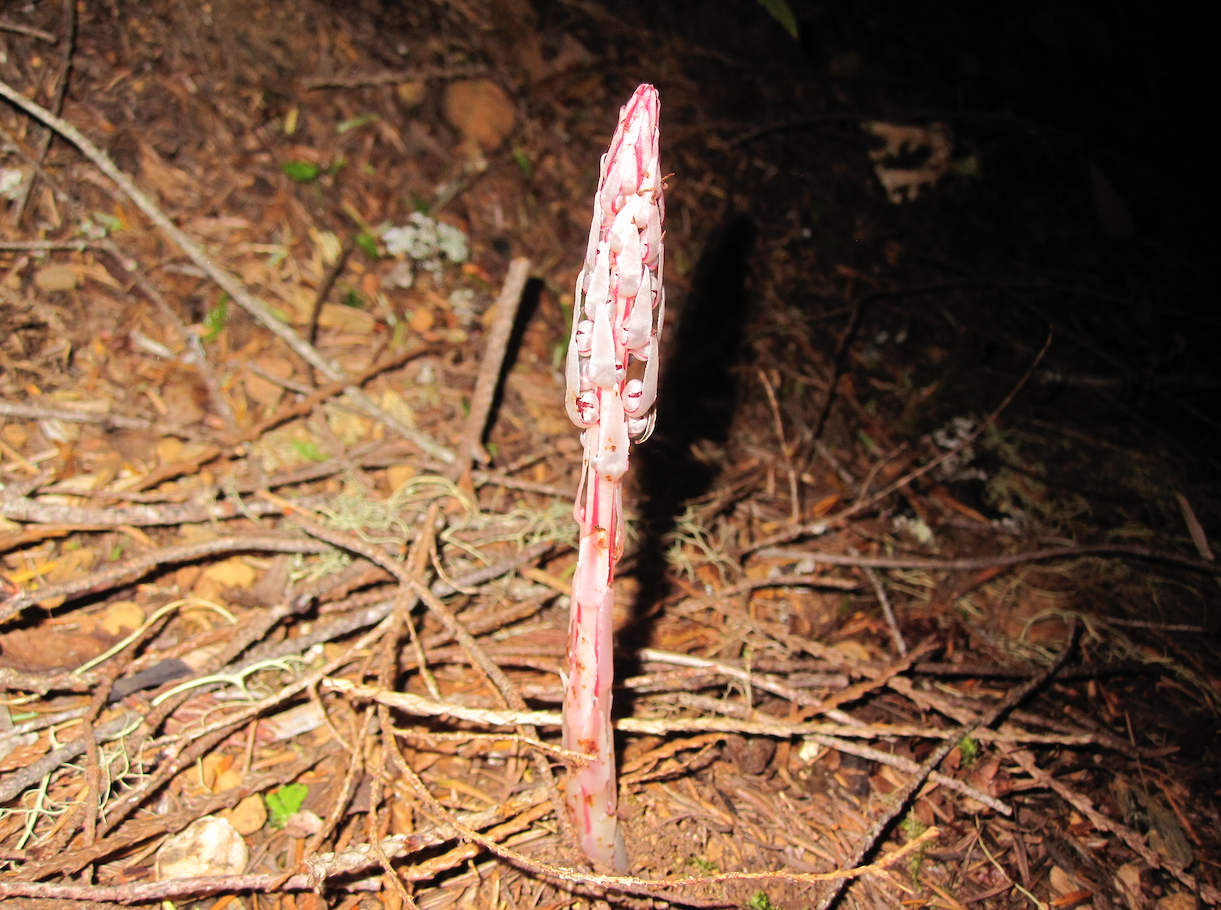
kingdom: Plantae
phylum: Tracheophyta
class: Magnoliopsida
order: Ericales
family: Ericaceae
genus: Allotropa
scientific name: Allotropa virgata
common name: Candy-striped allotropa
